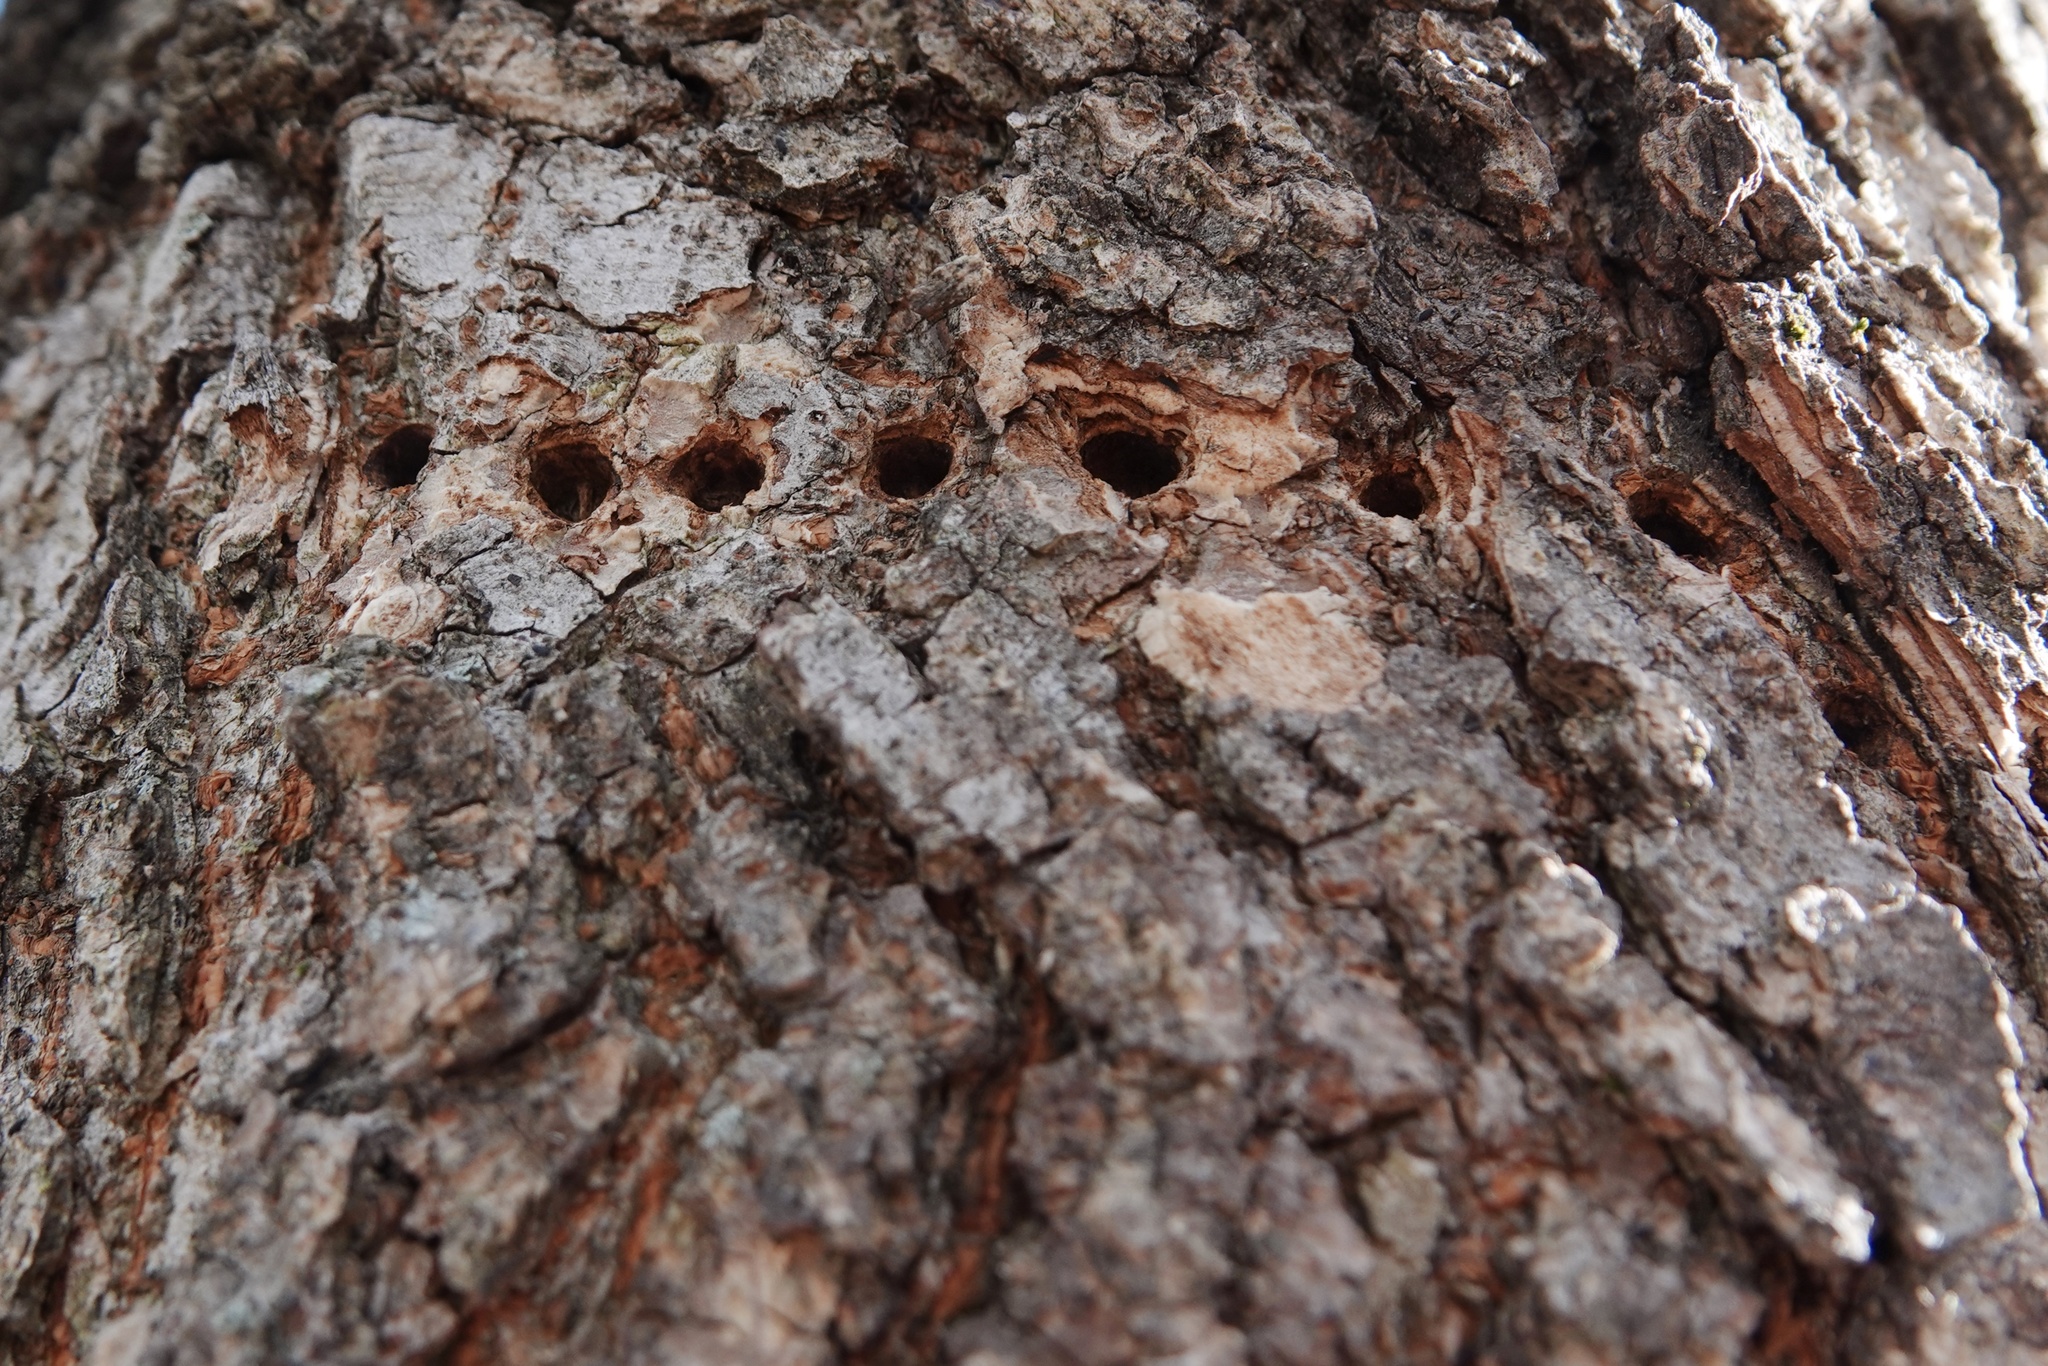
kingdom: Animalia
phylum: Chordata
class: Aves
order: Piciformes
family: Picidae
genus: Sphyrapicus
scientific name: Sphyrapicus varius
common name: Yellow-bellied sapsucker
